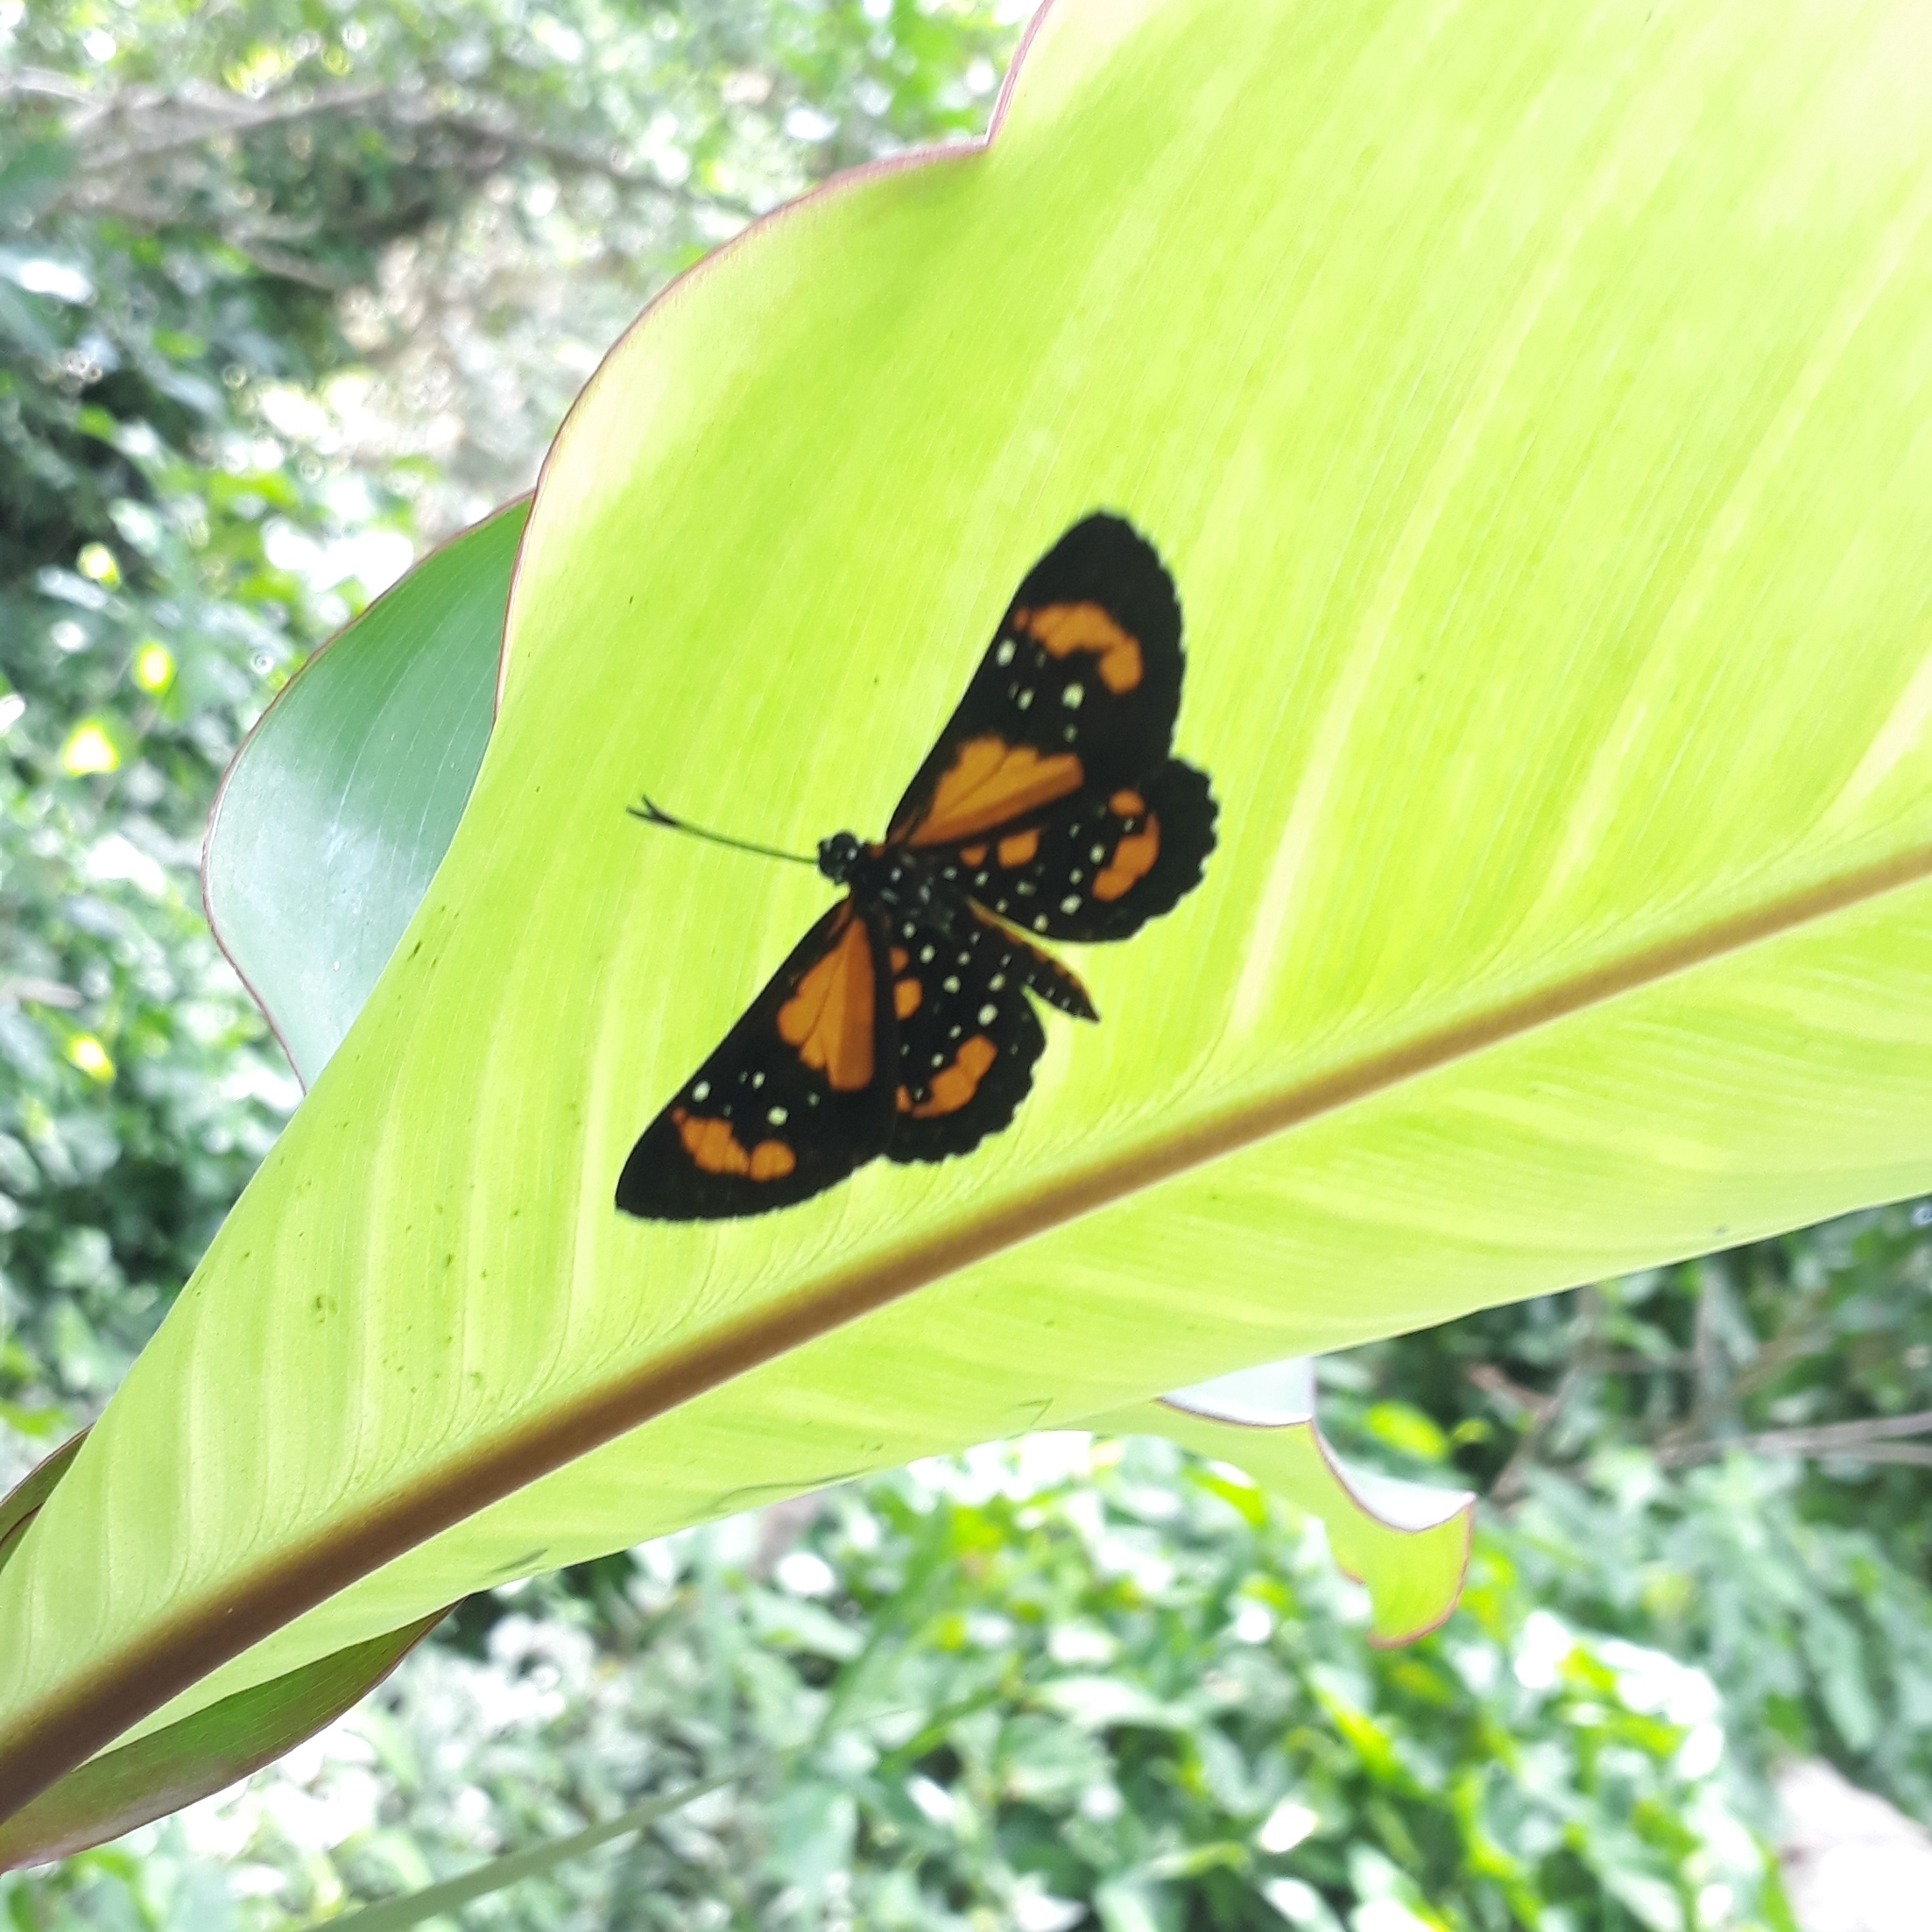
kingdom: Animalia
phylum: Arthropoda
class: Insecta
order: Lepidoptera
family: Riodinidae
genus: Stalachtis
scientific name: Stalachtis susanna
